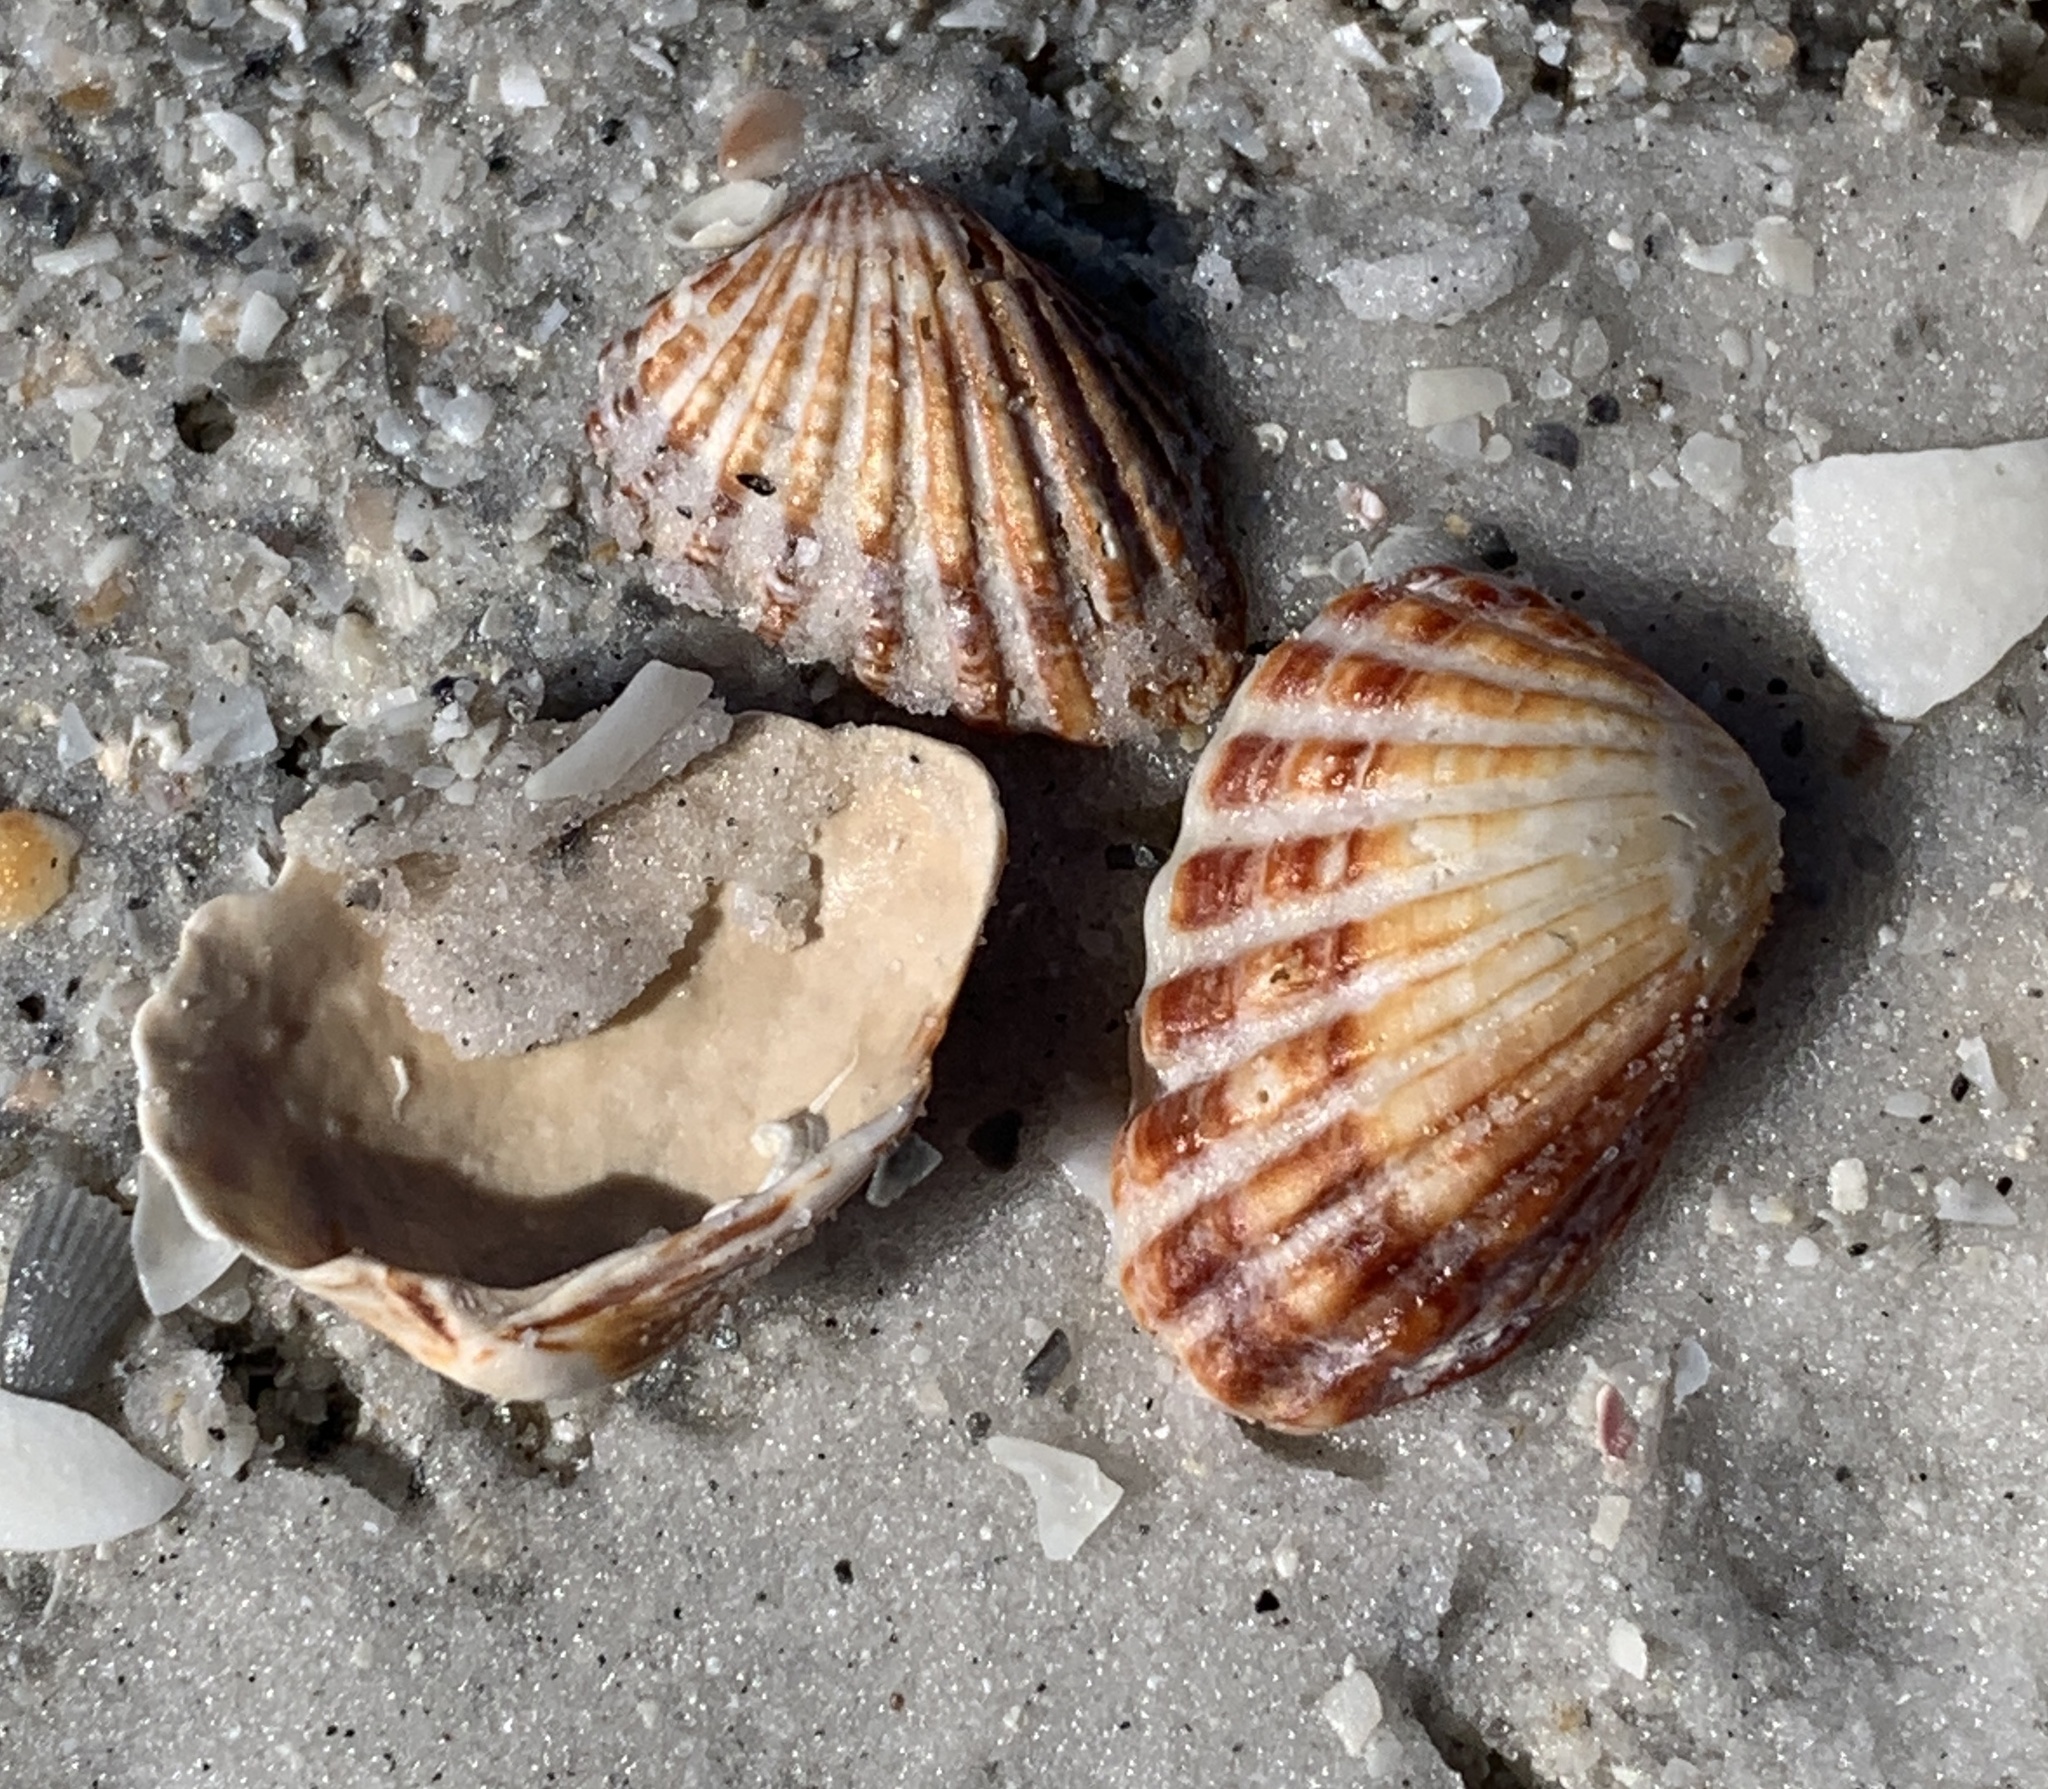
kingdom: Animalia
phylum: Mollusca
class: Bivalvia
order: Carditida
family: Carditidae
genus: Cardites
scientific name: Cardites floridanus
